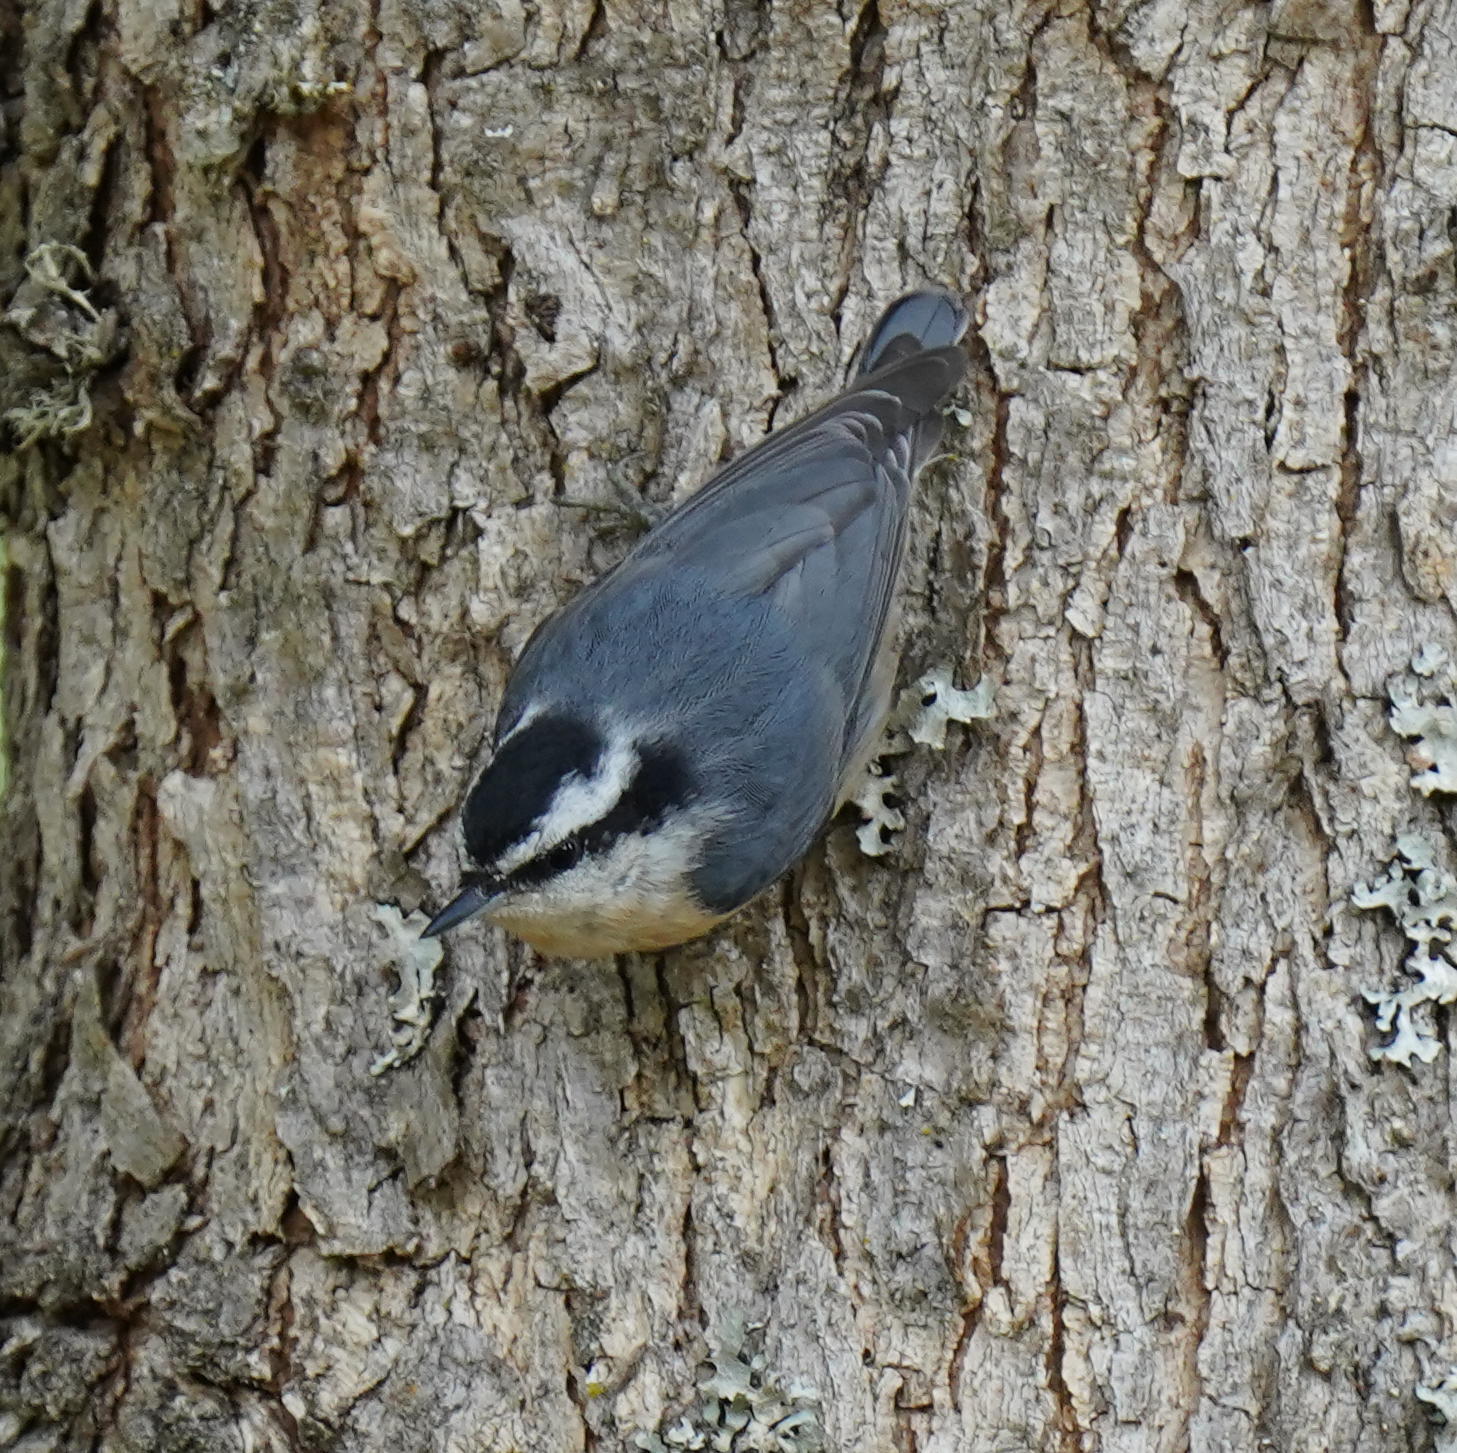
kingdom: Animalia
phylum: Chordata
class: Aves
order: Passeriformes
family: Sittidae
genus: Sitta
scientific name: Sitta canadensis
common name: Red-breasted nuthatch
